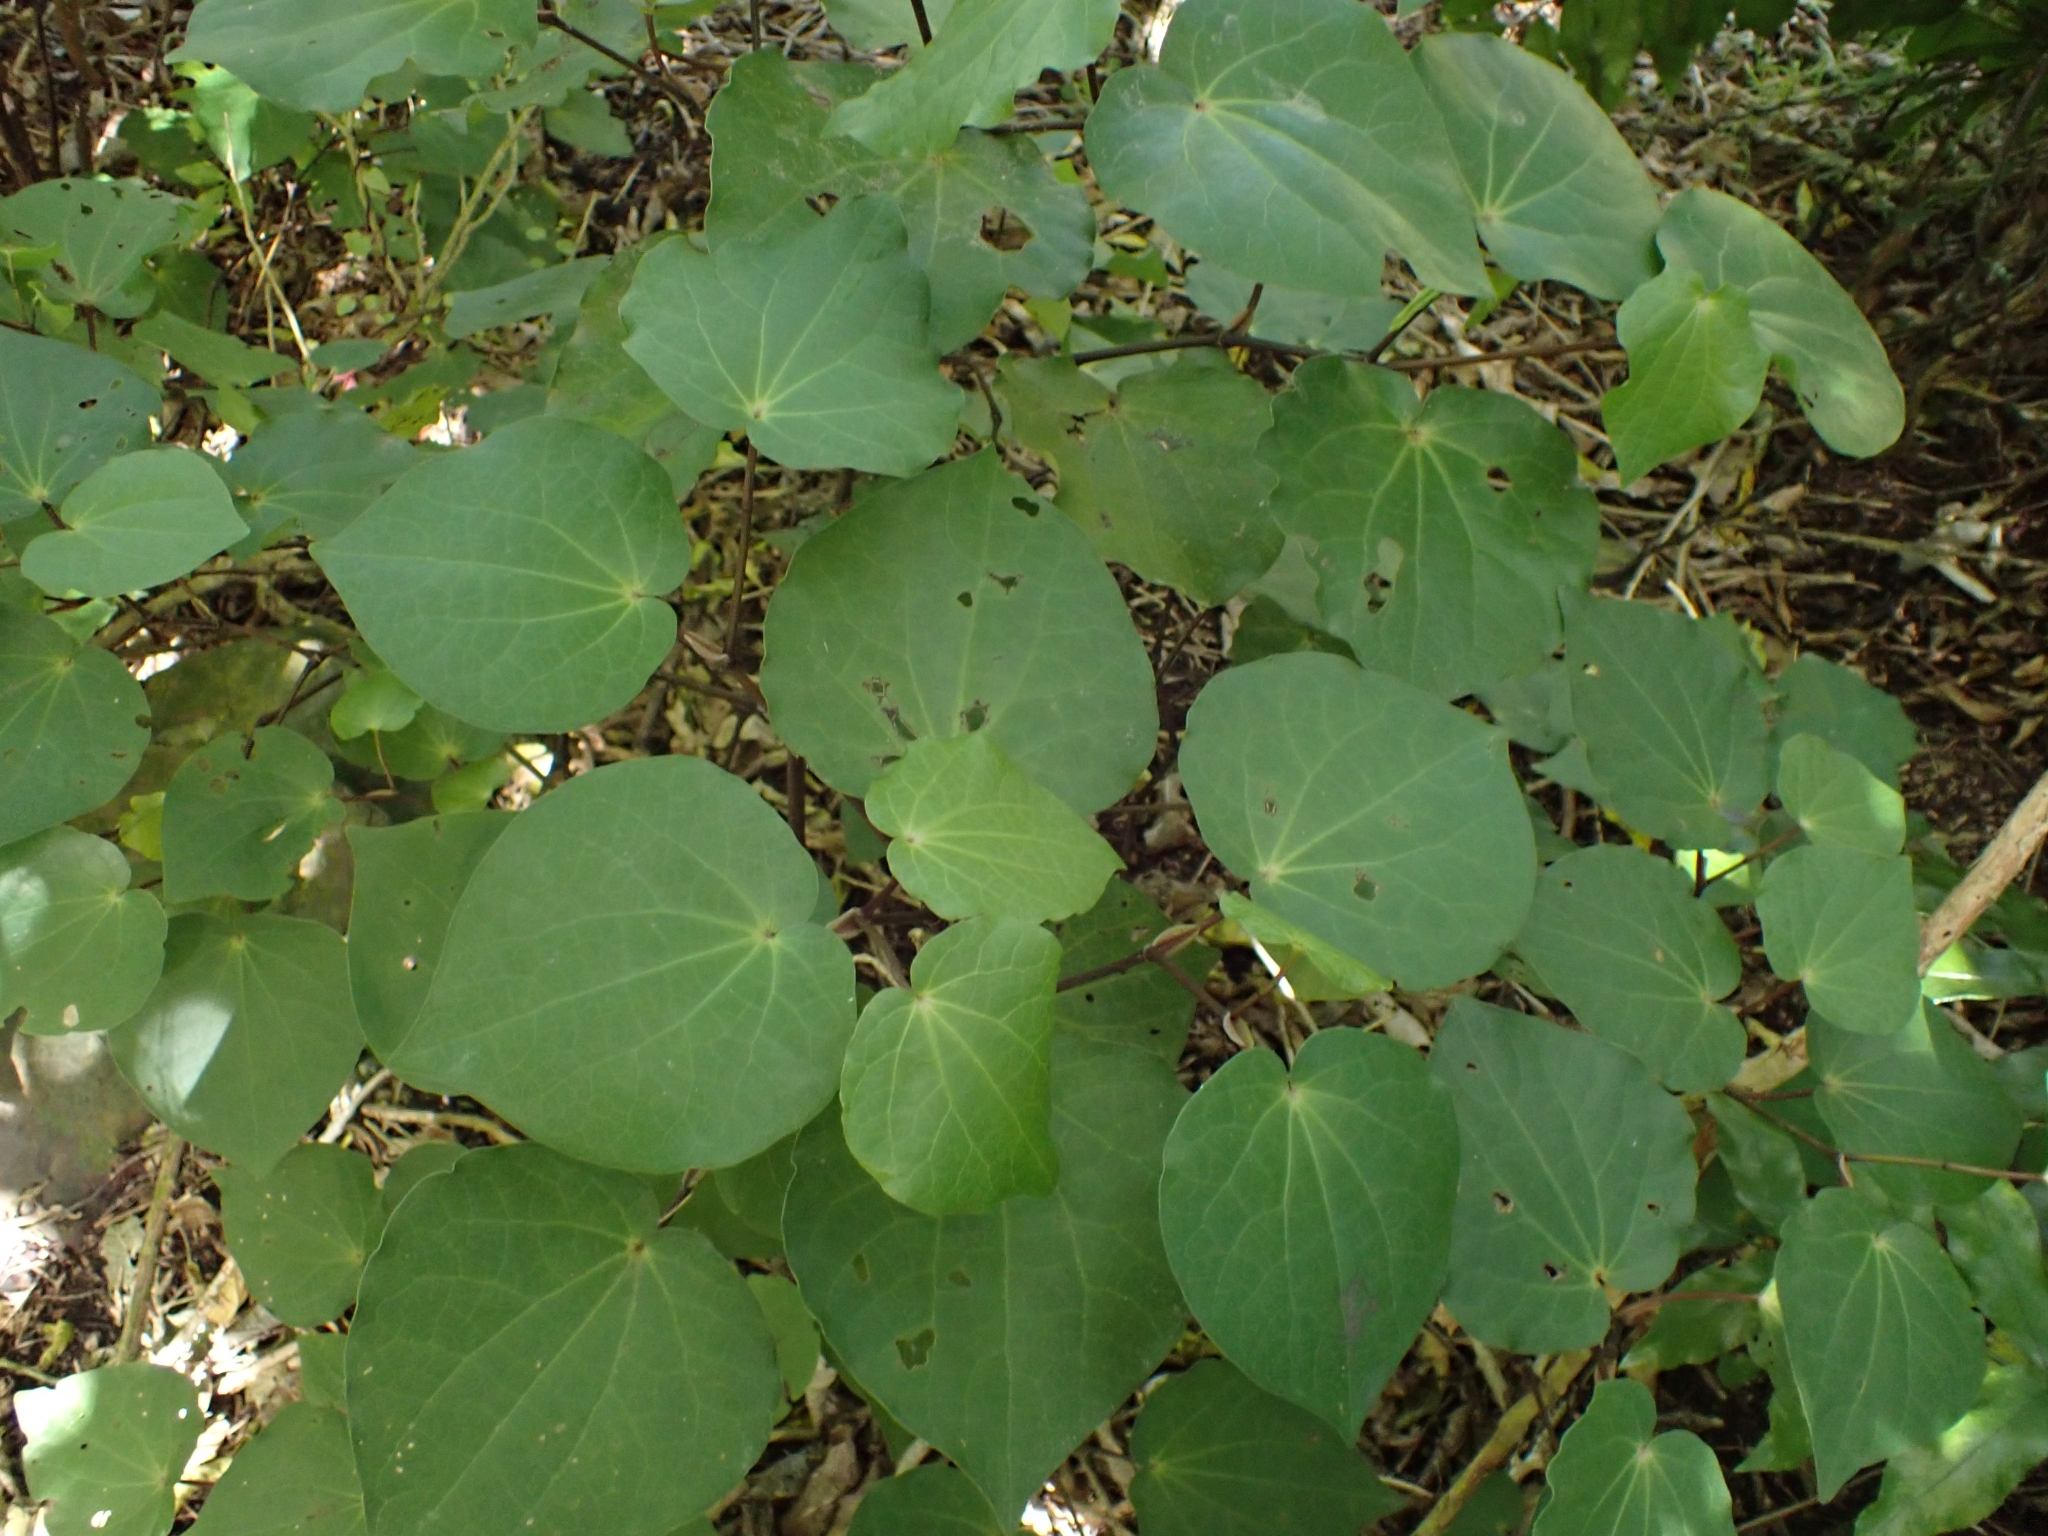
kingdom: Plantae
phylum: Tracheophyta
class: Magnoliopsida
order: Piperales
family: Piperaceae
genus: Macropiper
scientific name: Macropiper excelsum
